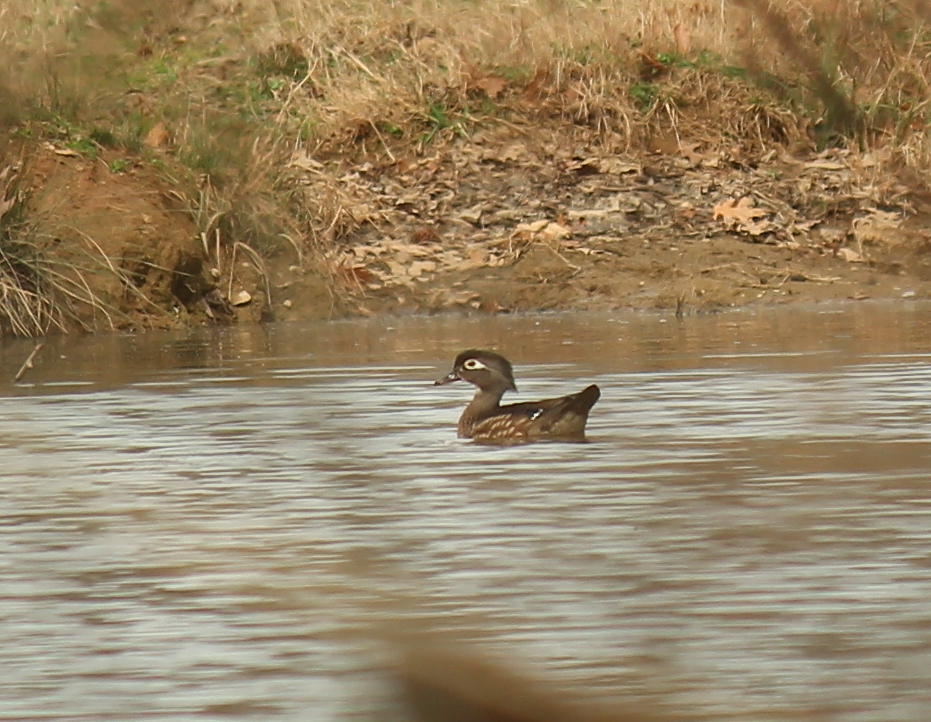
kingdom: Animalia
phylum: Chordata
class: Aves
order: Anseriformes
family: Anatidae
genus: Aix
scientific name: Aix sponsa
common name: Wood duck
